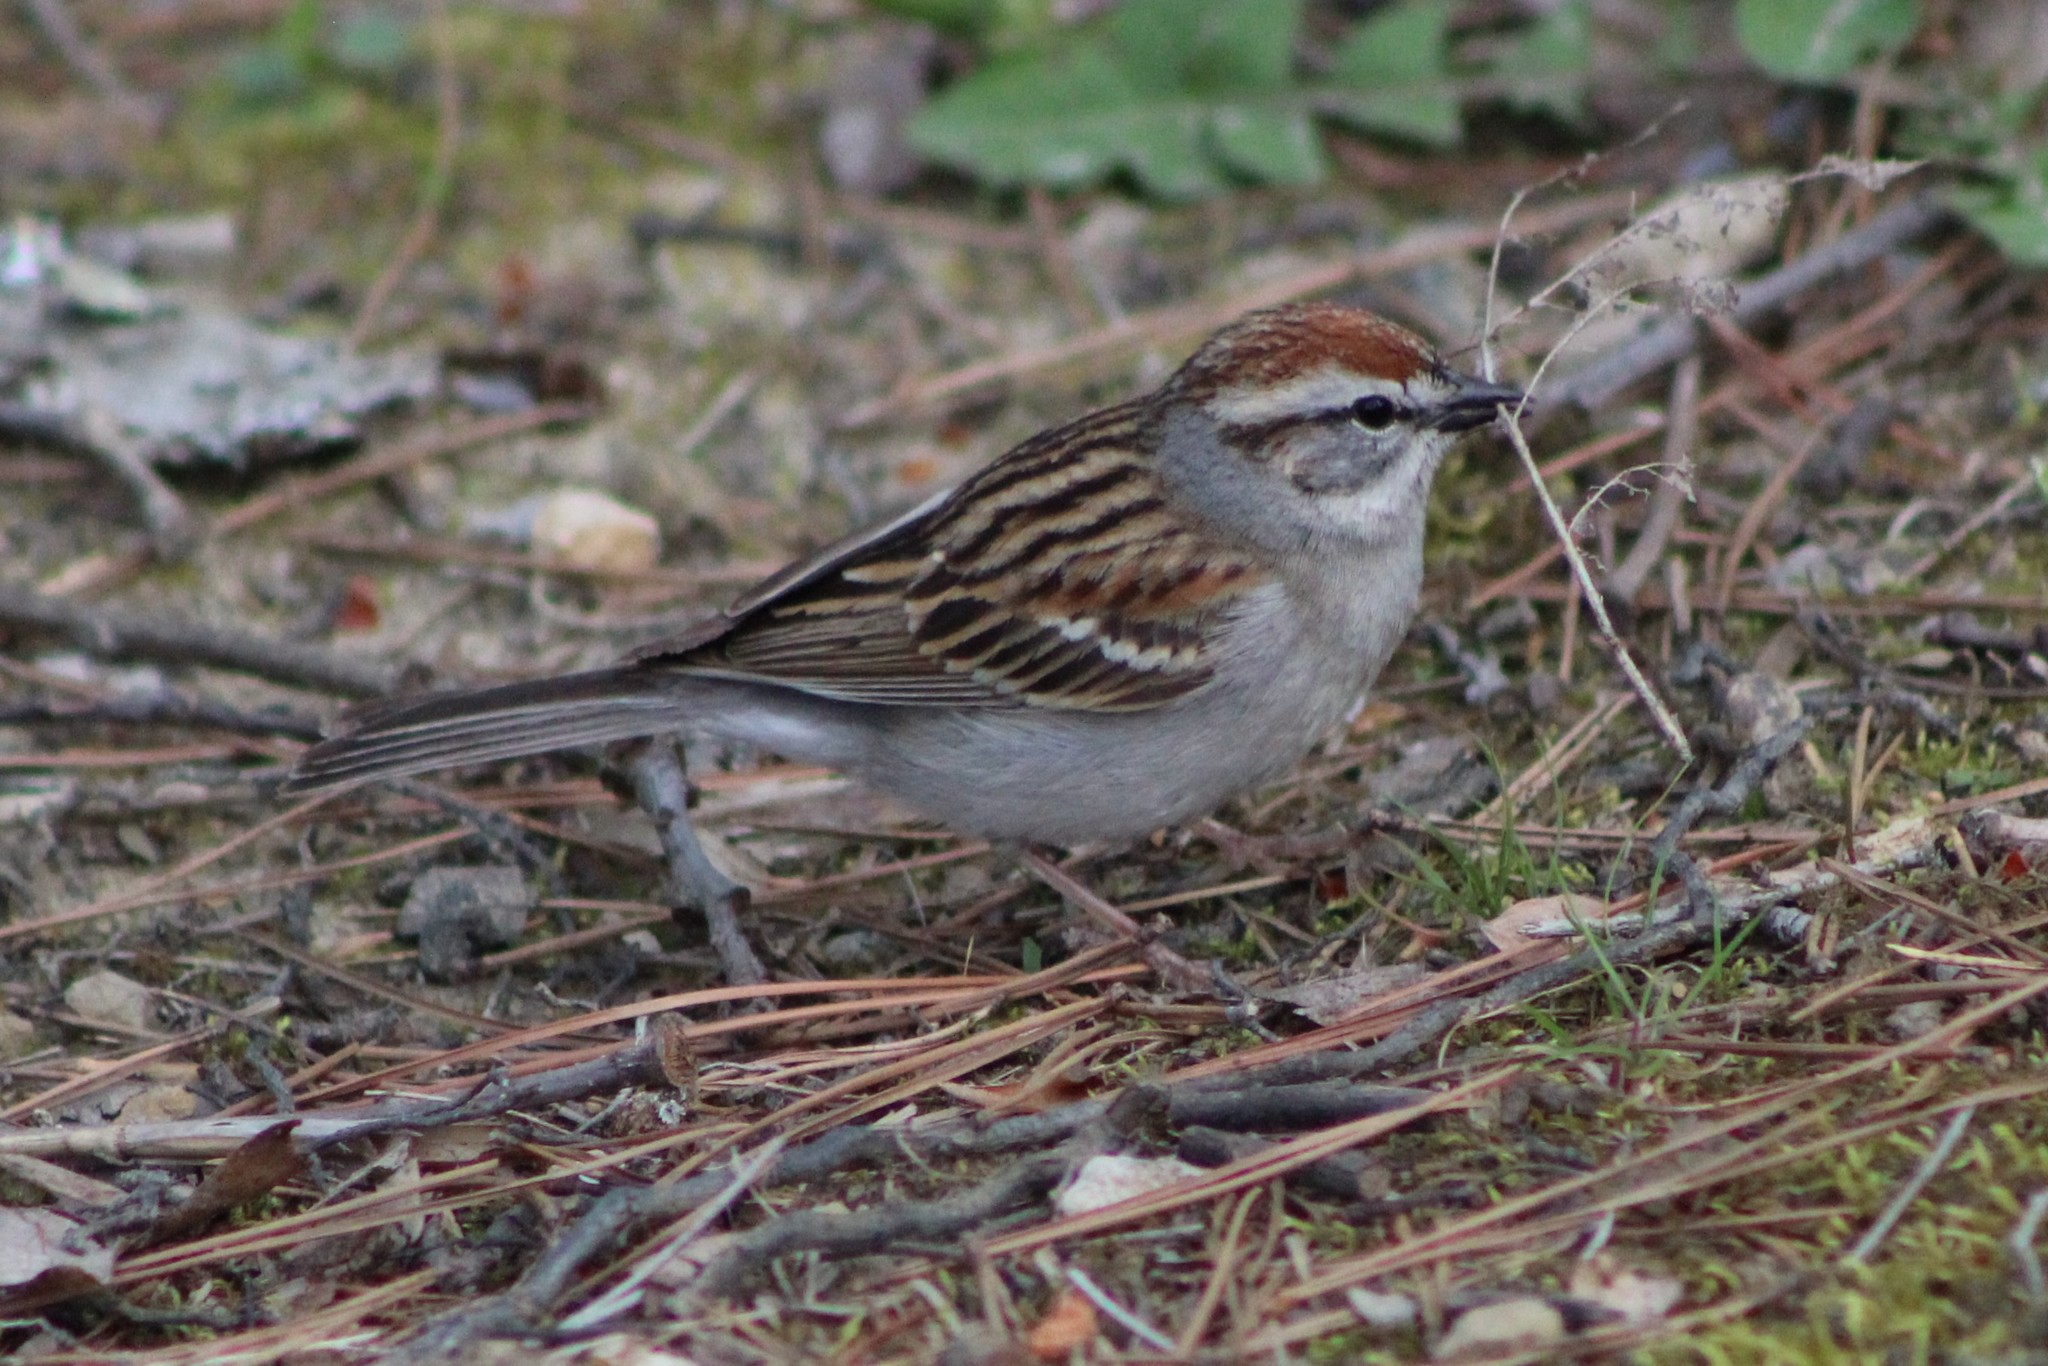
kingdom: Animalia
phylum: Chordata
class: Aves
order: Passeriformes
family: Passerellidae
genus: Spizella
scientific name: Spizella passerina
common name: Chipping sparrow
